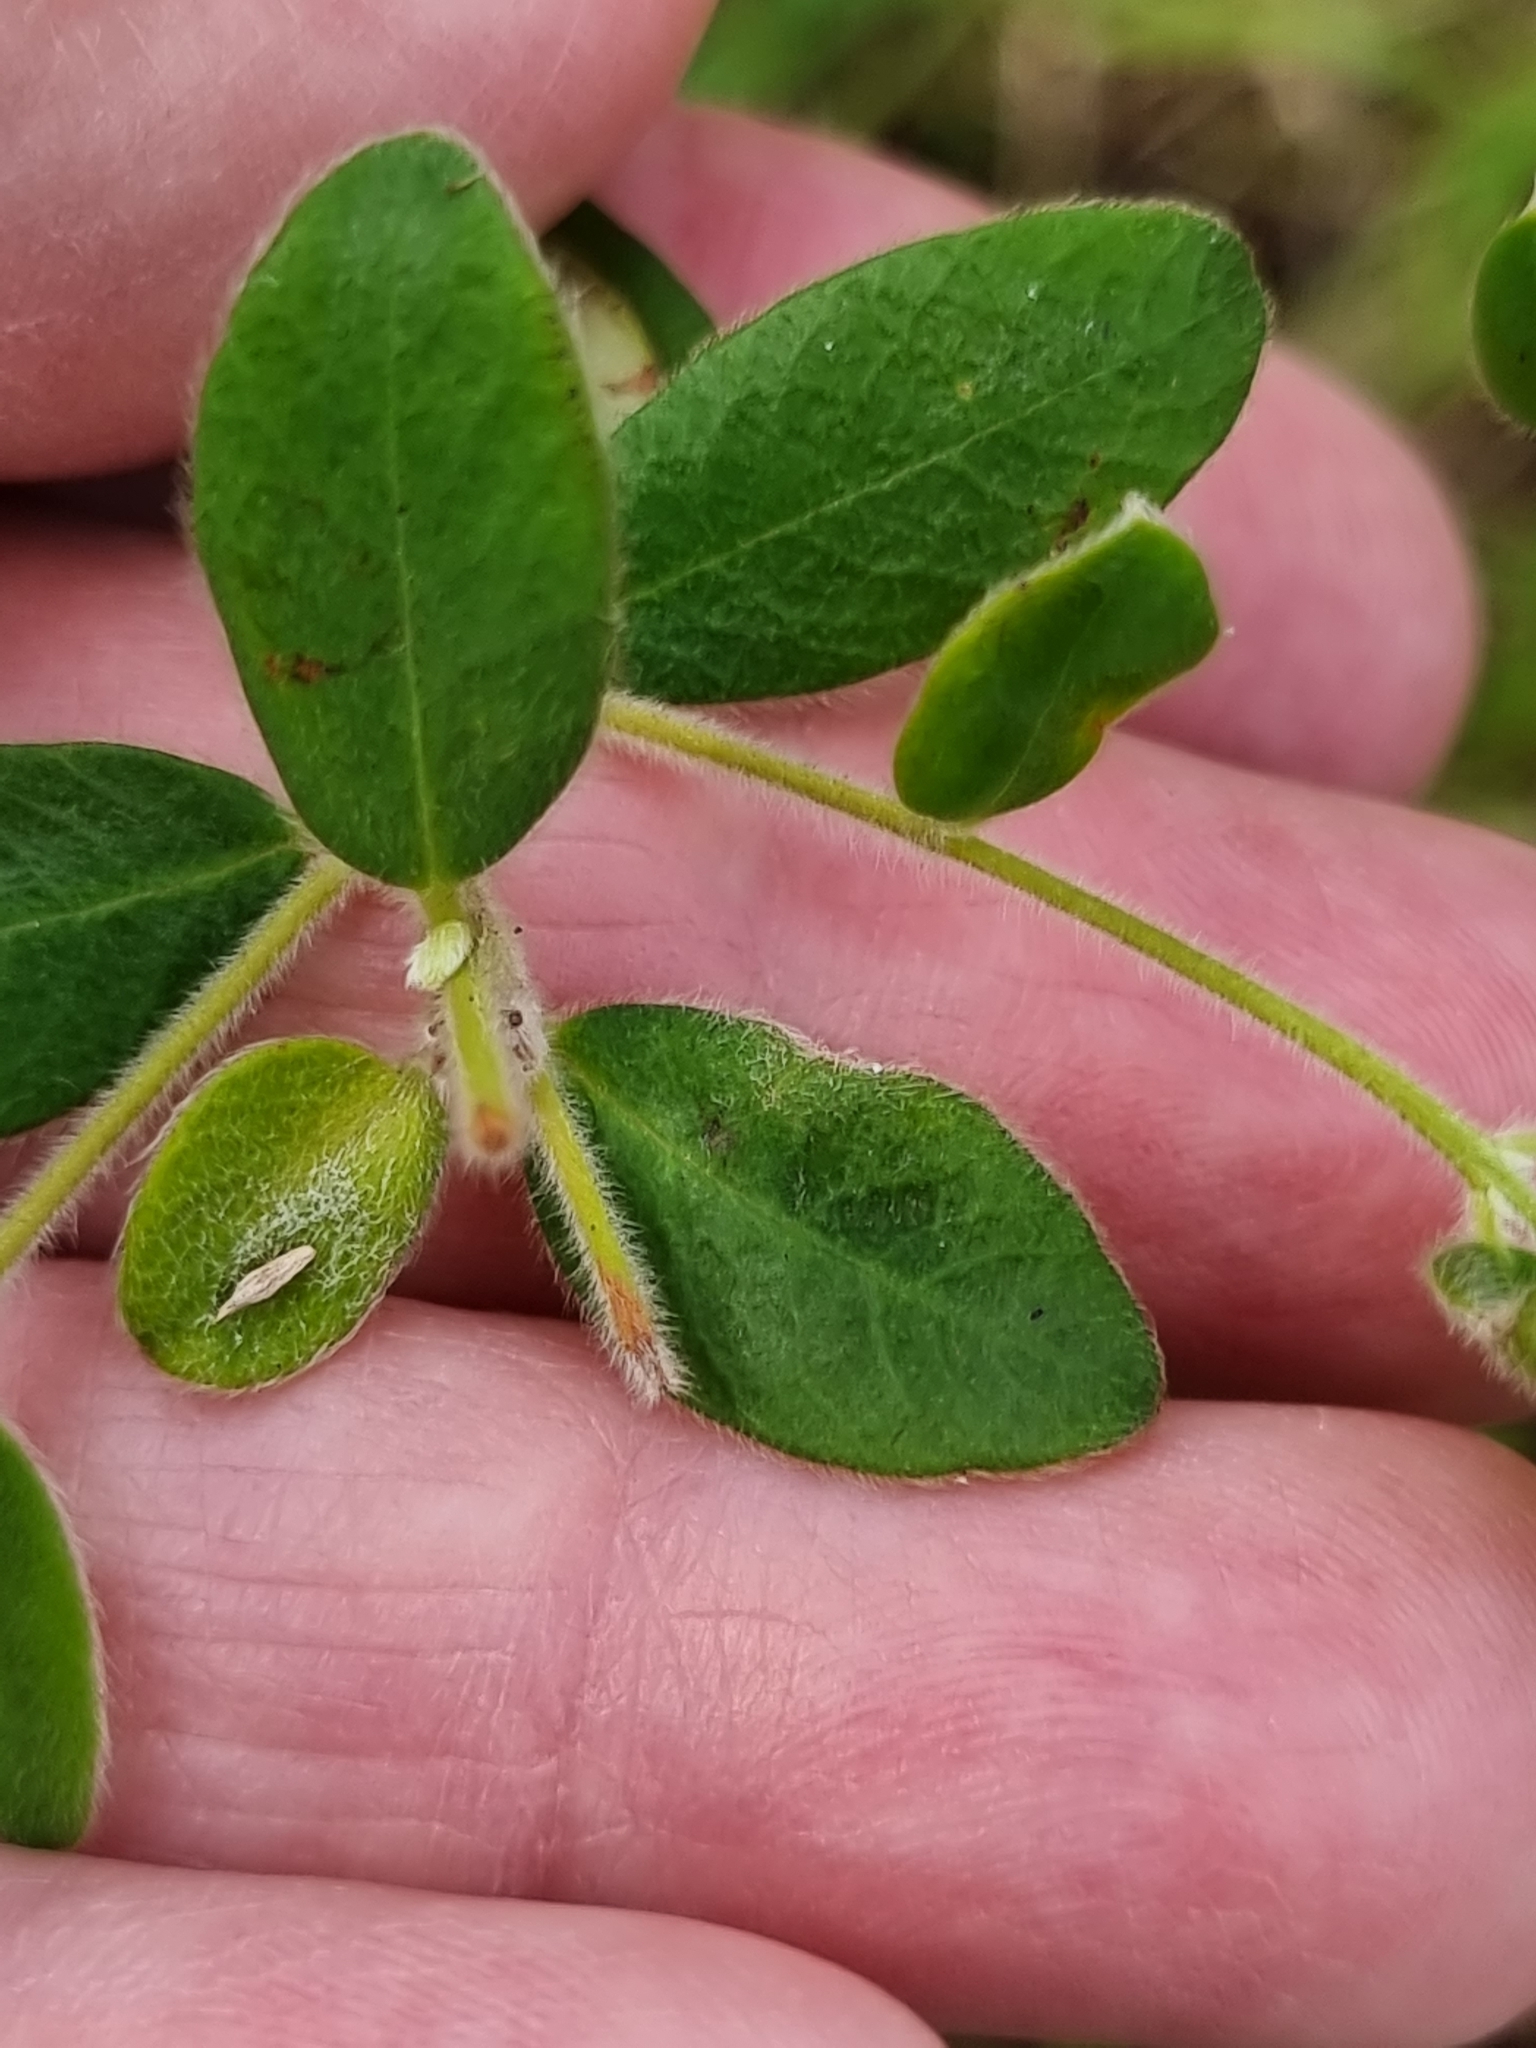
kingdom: Plantae
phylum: Tracheophyta
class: Magnoliopsida
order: Malvales
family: Thymelaeaceae
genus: Pimelea
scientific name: Pimelea altior
